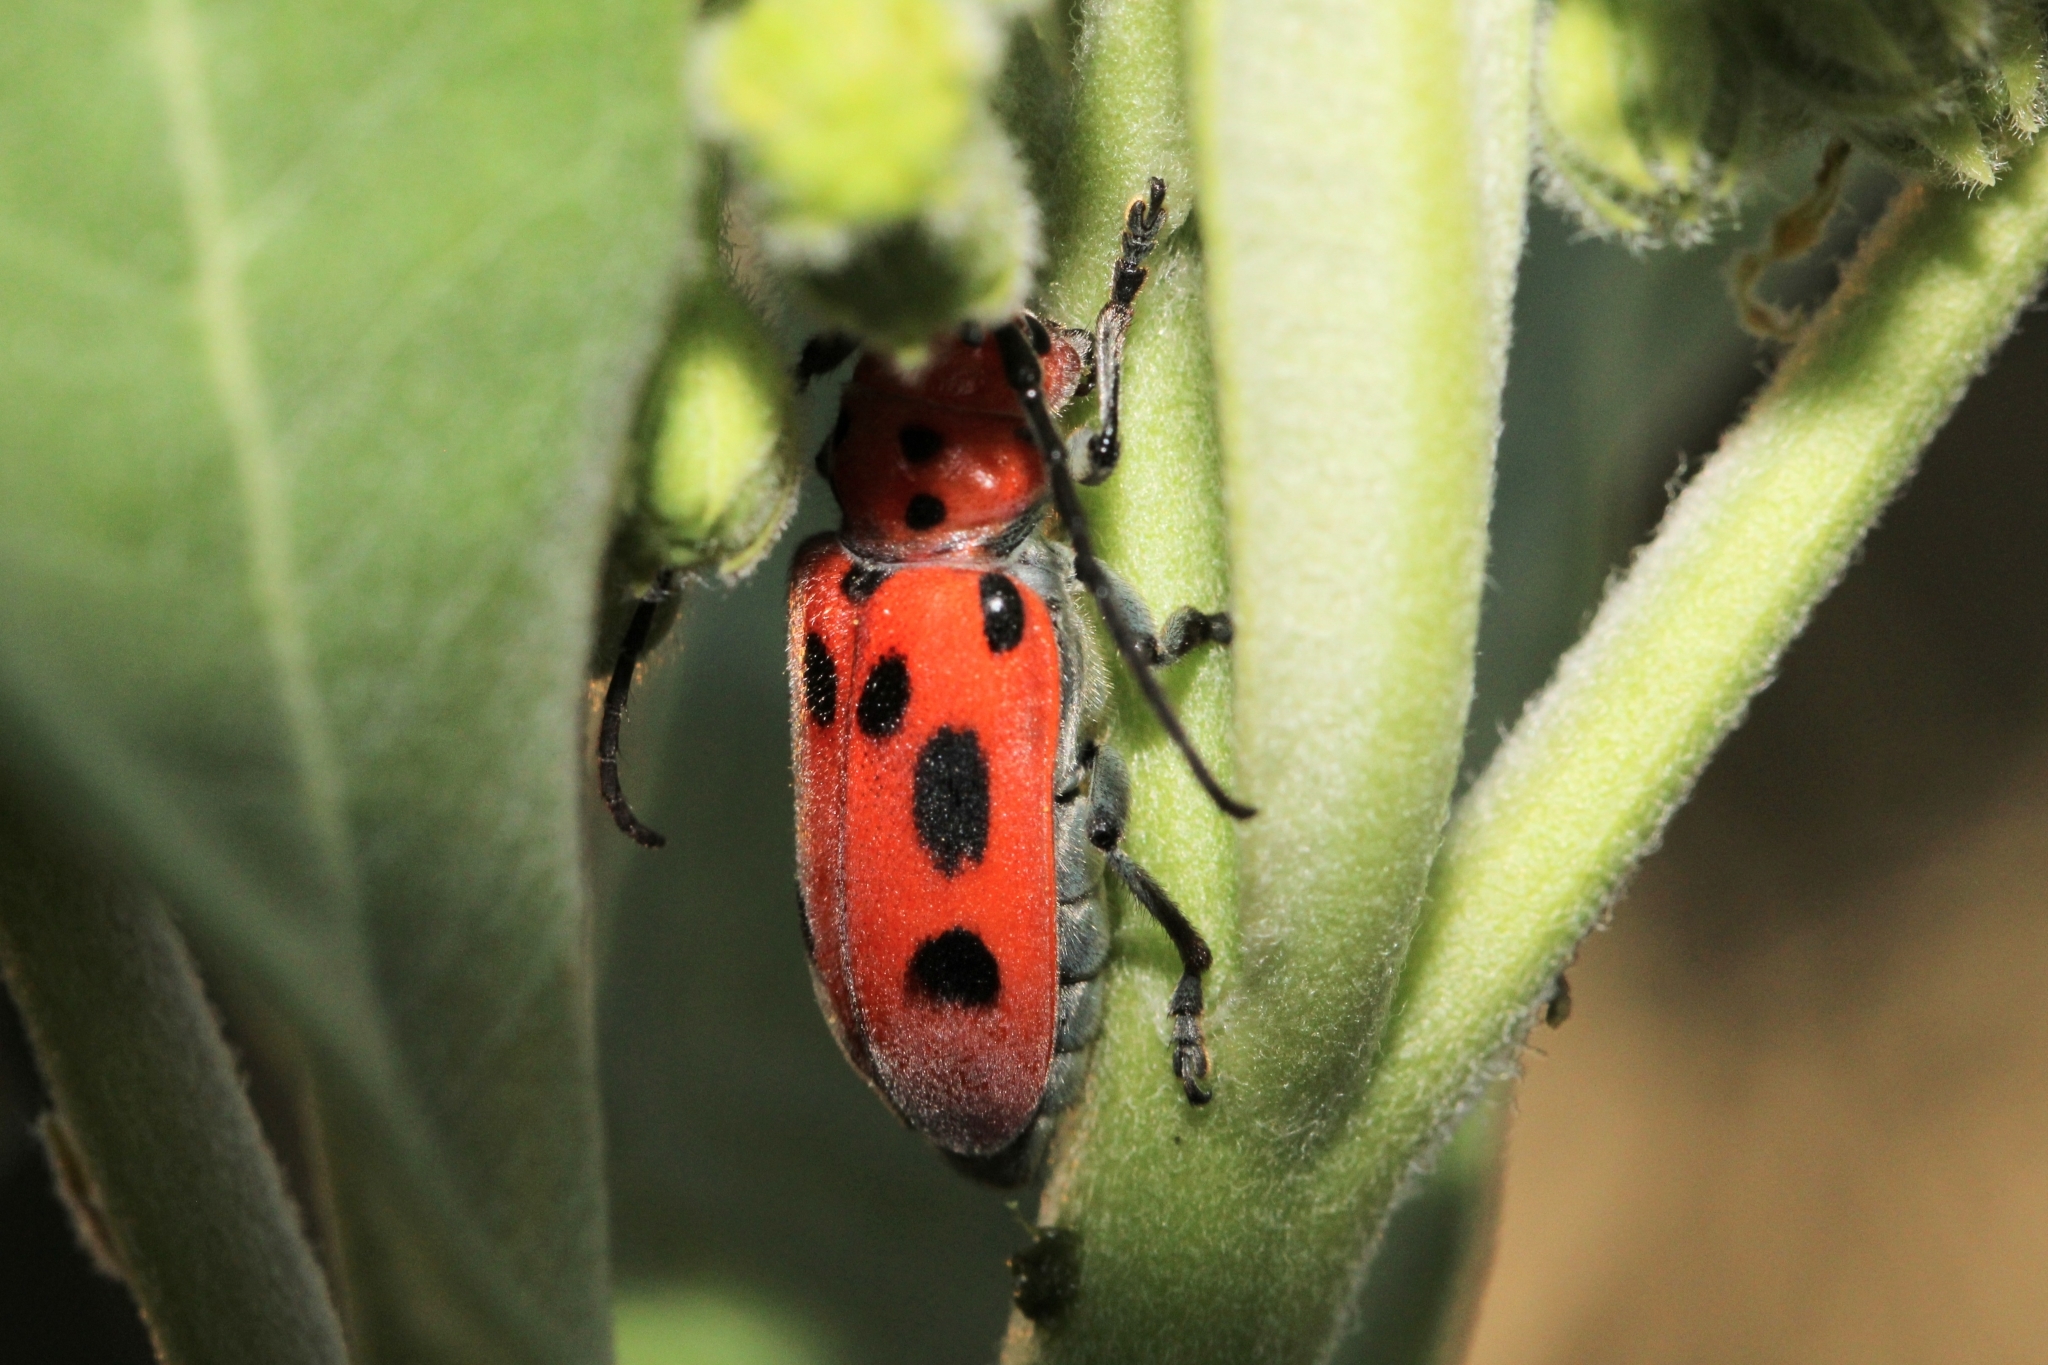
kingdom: Animalia
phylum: Arthropoda
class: Insecta
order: Coleoptera
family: Cerambycidae
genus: Tetraopes
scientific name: Tetraopes tetrophthalmus
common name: Red milkweed beetle
